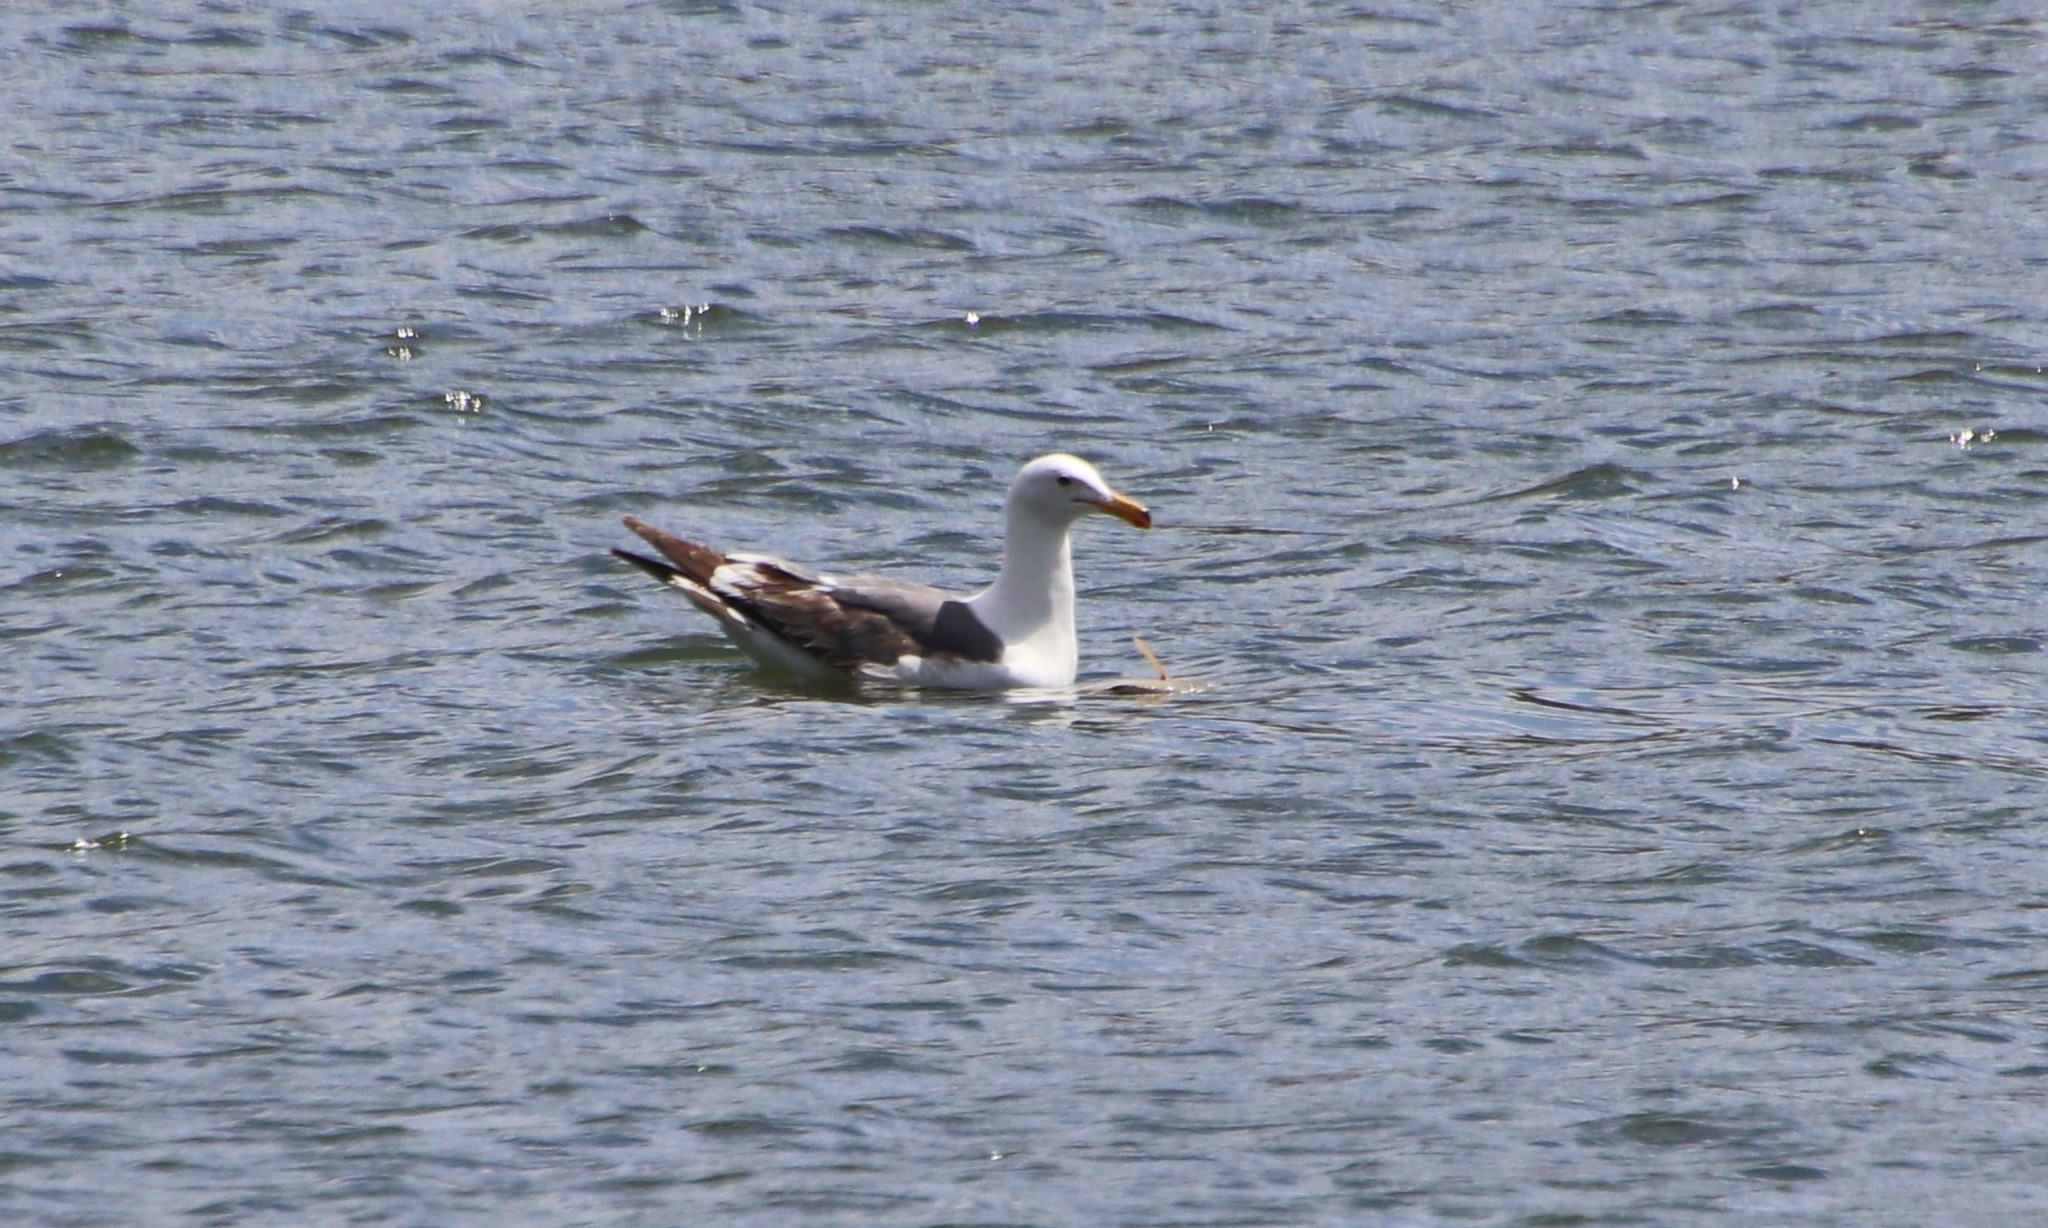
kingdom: Animalia
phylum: Chordata
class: Aves
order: Charadriiformes
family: Laridae
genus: Larus
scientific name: Larus occidentalis
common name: Western gull
